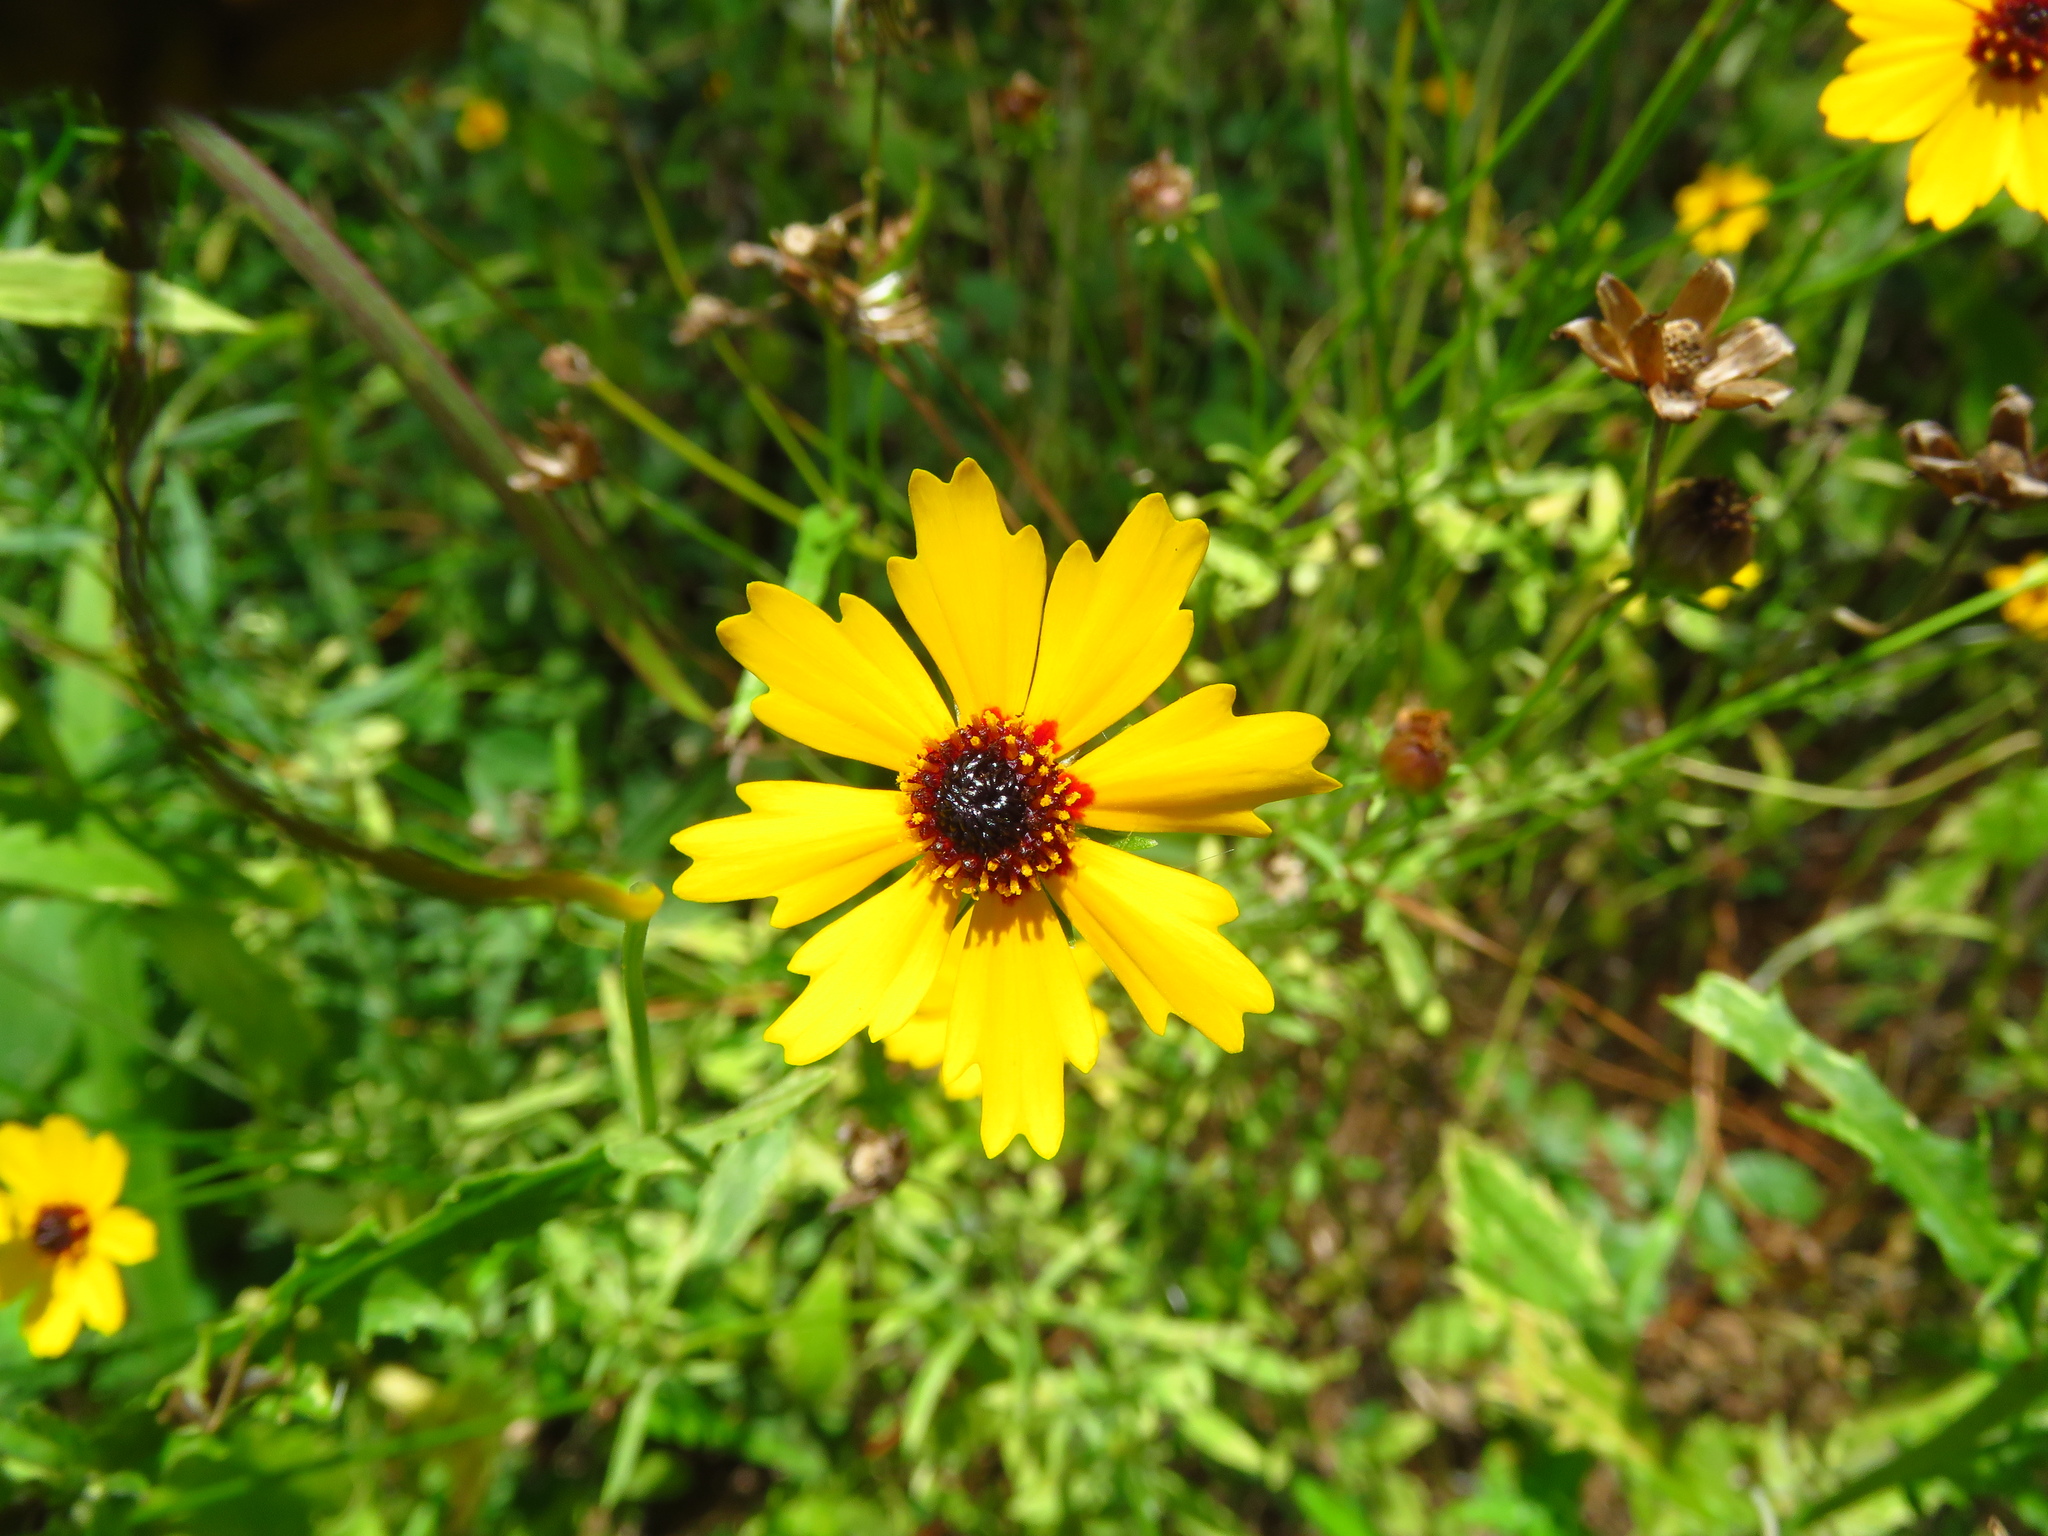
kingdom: Plantae
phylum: Tracheophyta
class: Magnoliopsida
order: Asterales
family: Asteraceae
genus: Coreopsis
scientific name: Coreopsis basalis
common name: Golden-mane coreopsis
